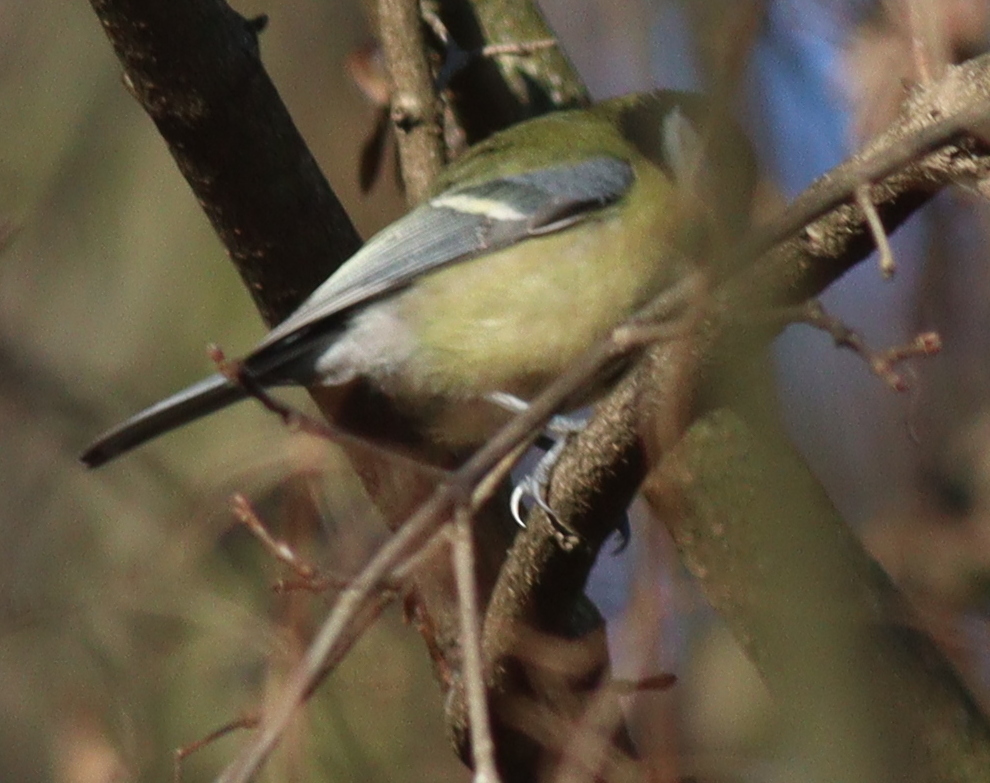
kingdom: Animalia
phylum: Chordata
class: Aves
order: Passeriformes
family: Paridae
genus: Parus
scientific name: Parus major
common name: Great tit
